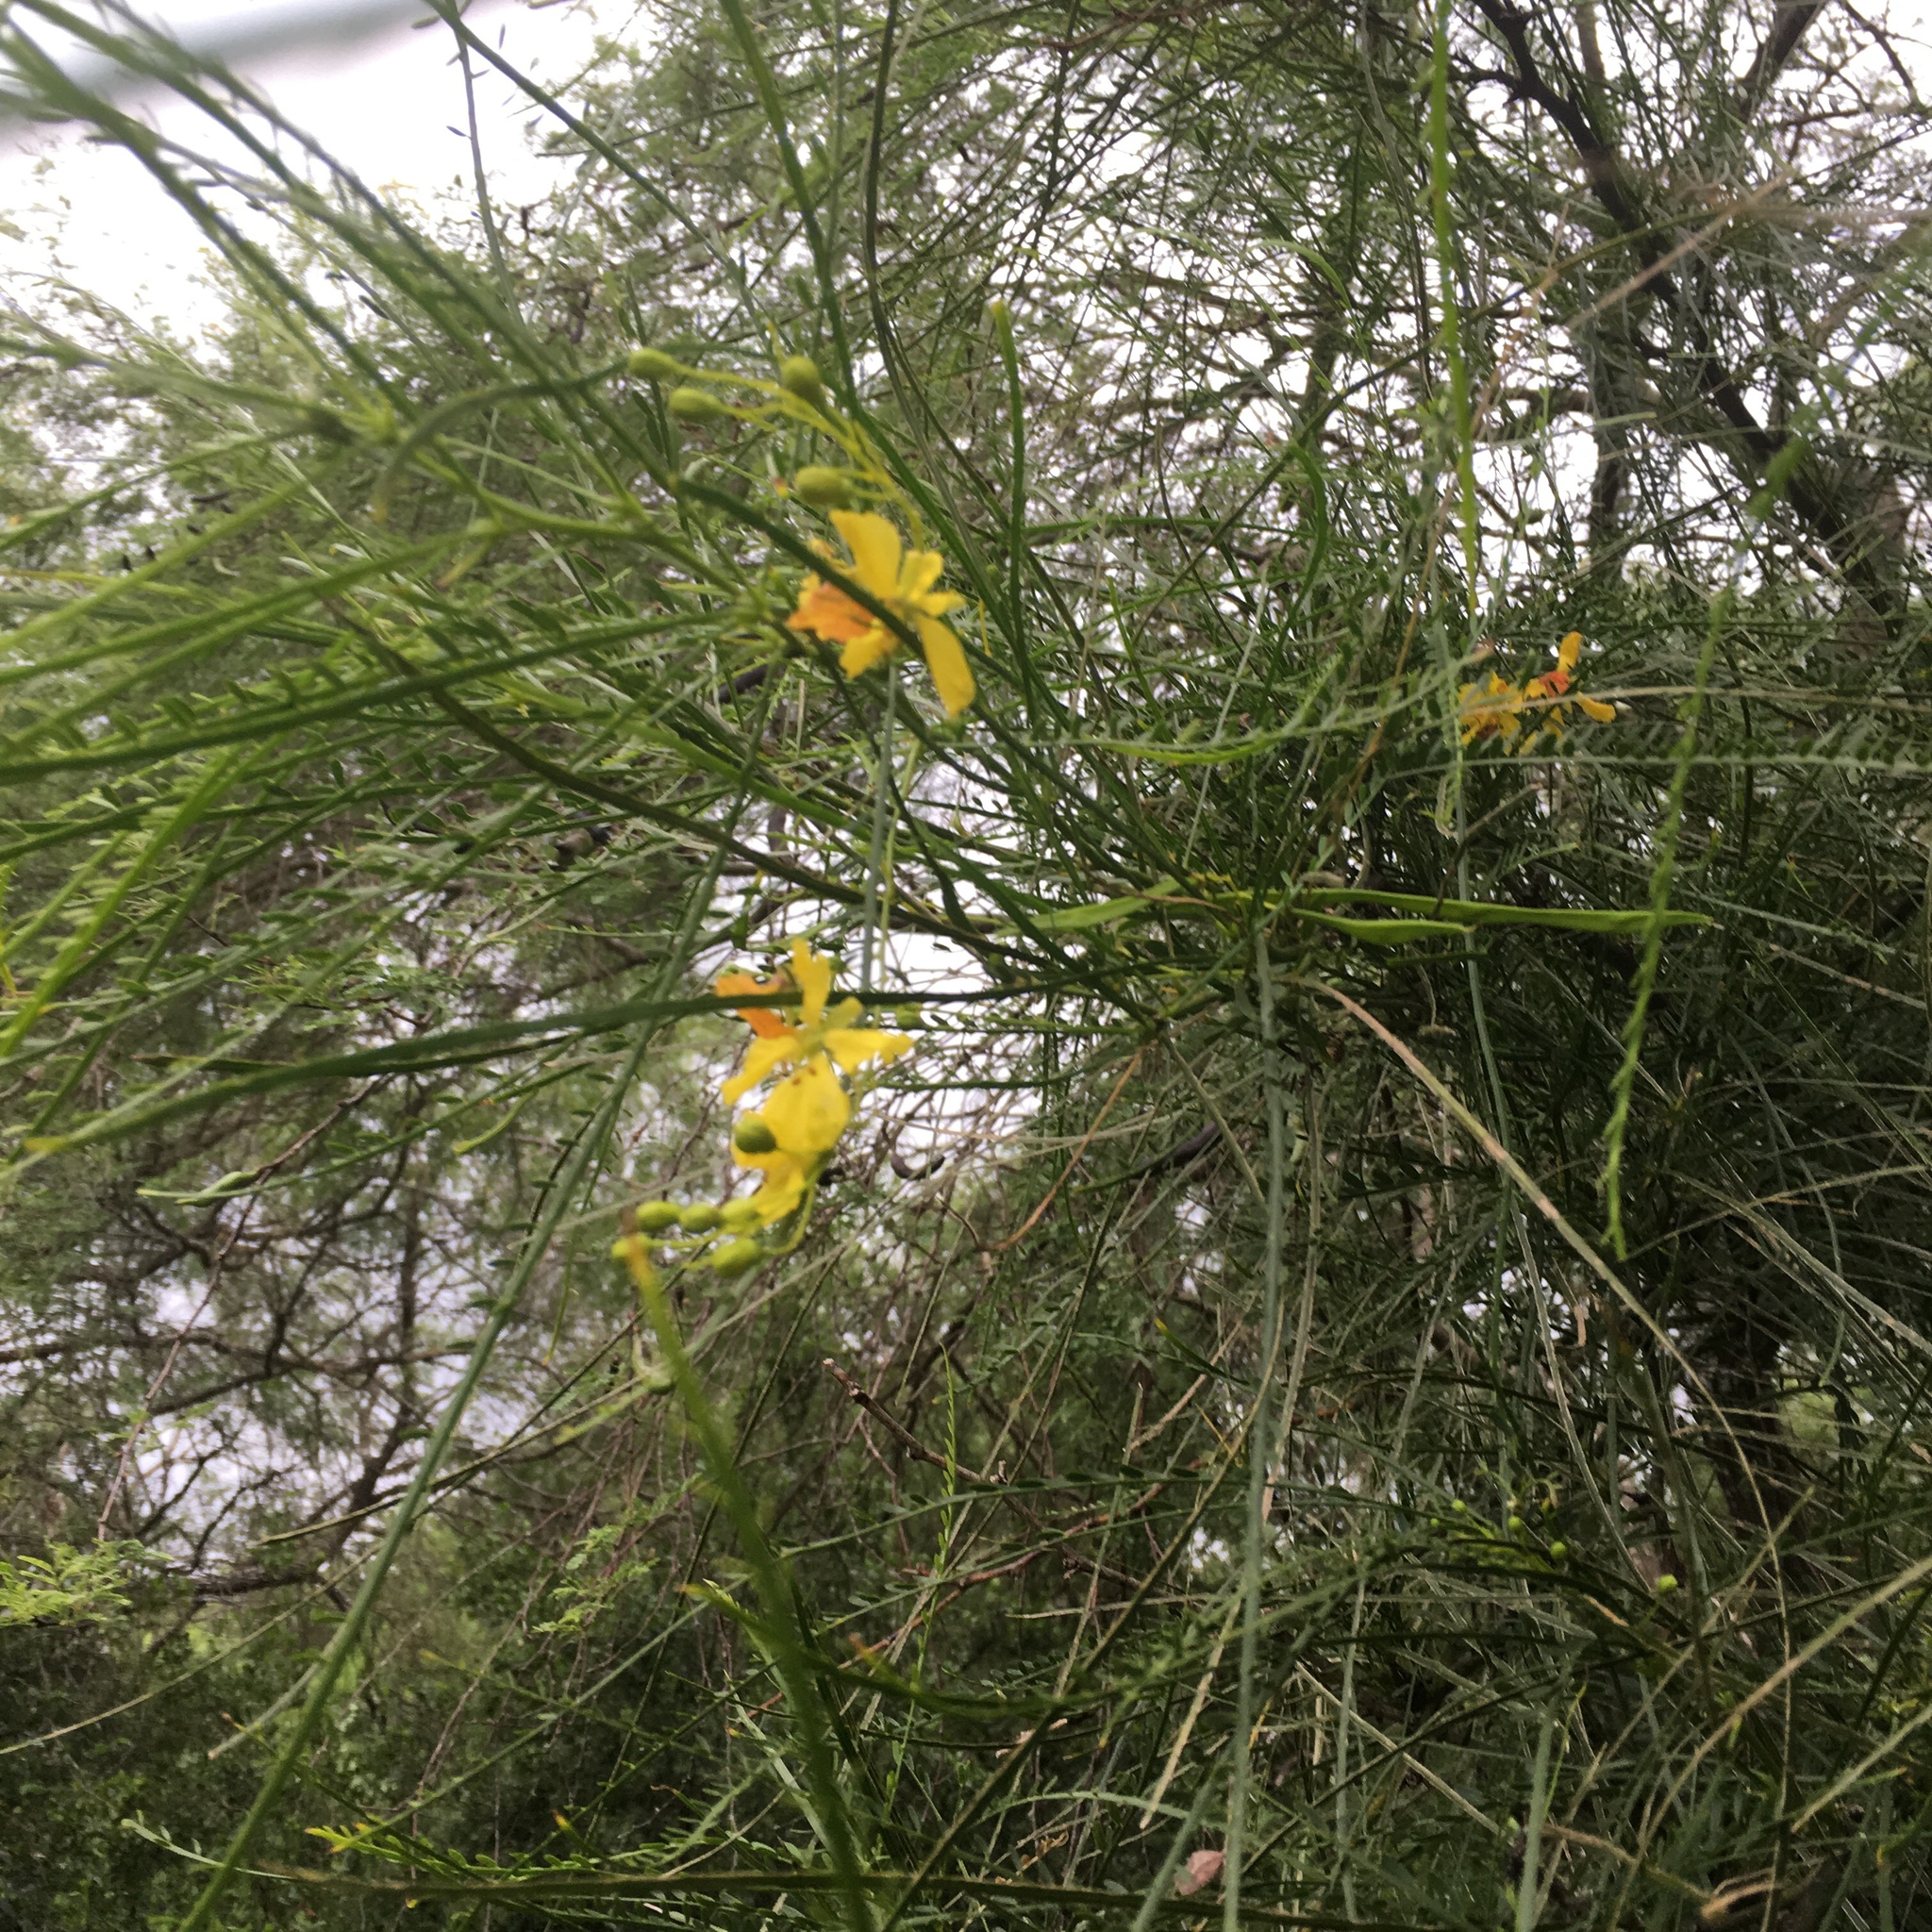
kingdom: Plantae
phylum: Tracheophyta
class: Magnoliopsida
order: Fabales
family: Fabaceae
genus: Parkinsonia
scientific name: Parkinsonia aculeata
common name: Jerusalem thorn
